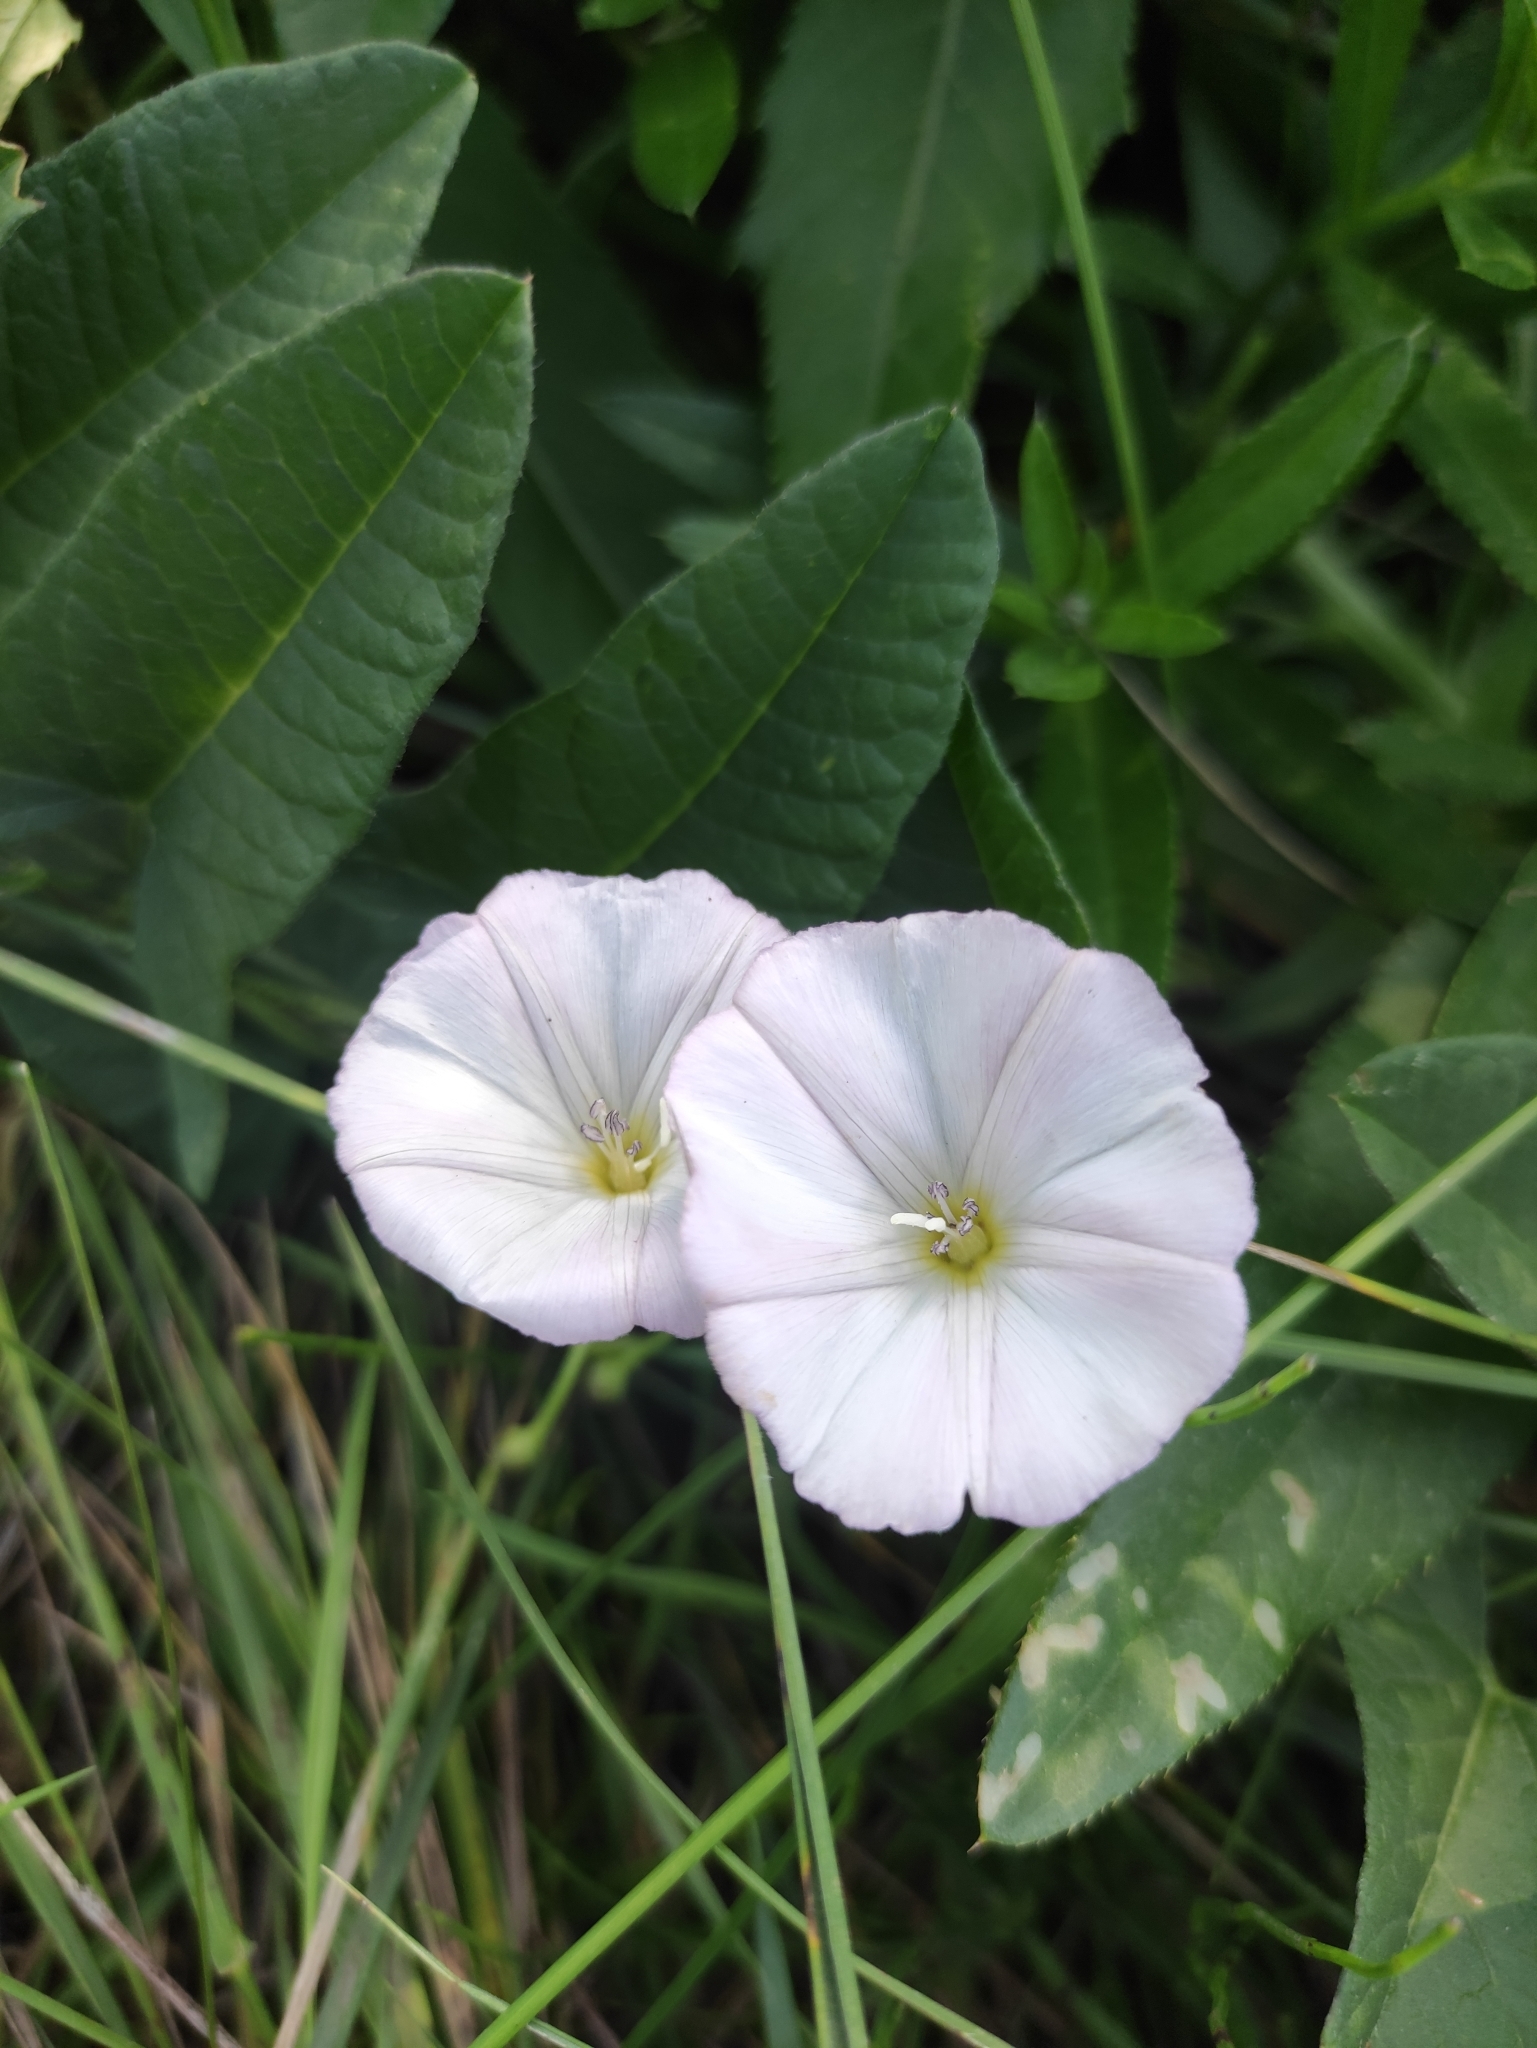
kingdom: Plantae
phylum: Tracheophyta
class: Magnoliopsida
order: Solanales
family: Convolvulaceae
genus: Convolvulus
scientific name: Convolvulus arvensis
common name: Field bindweed
